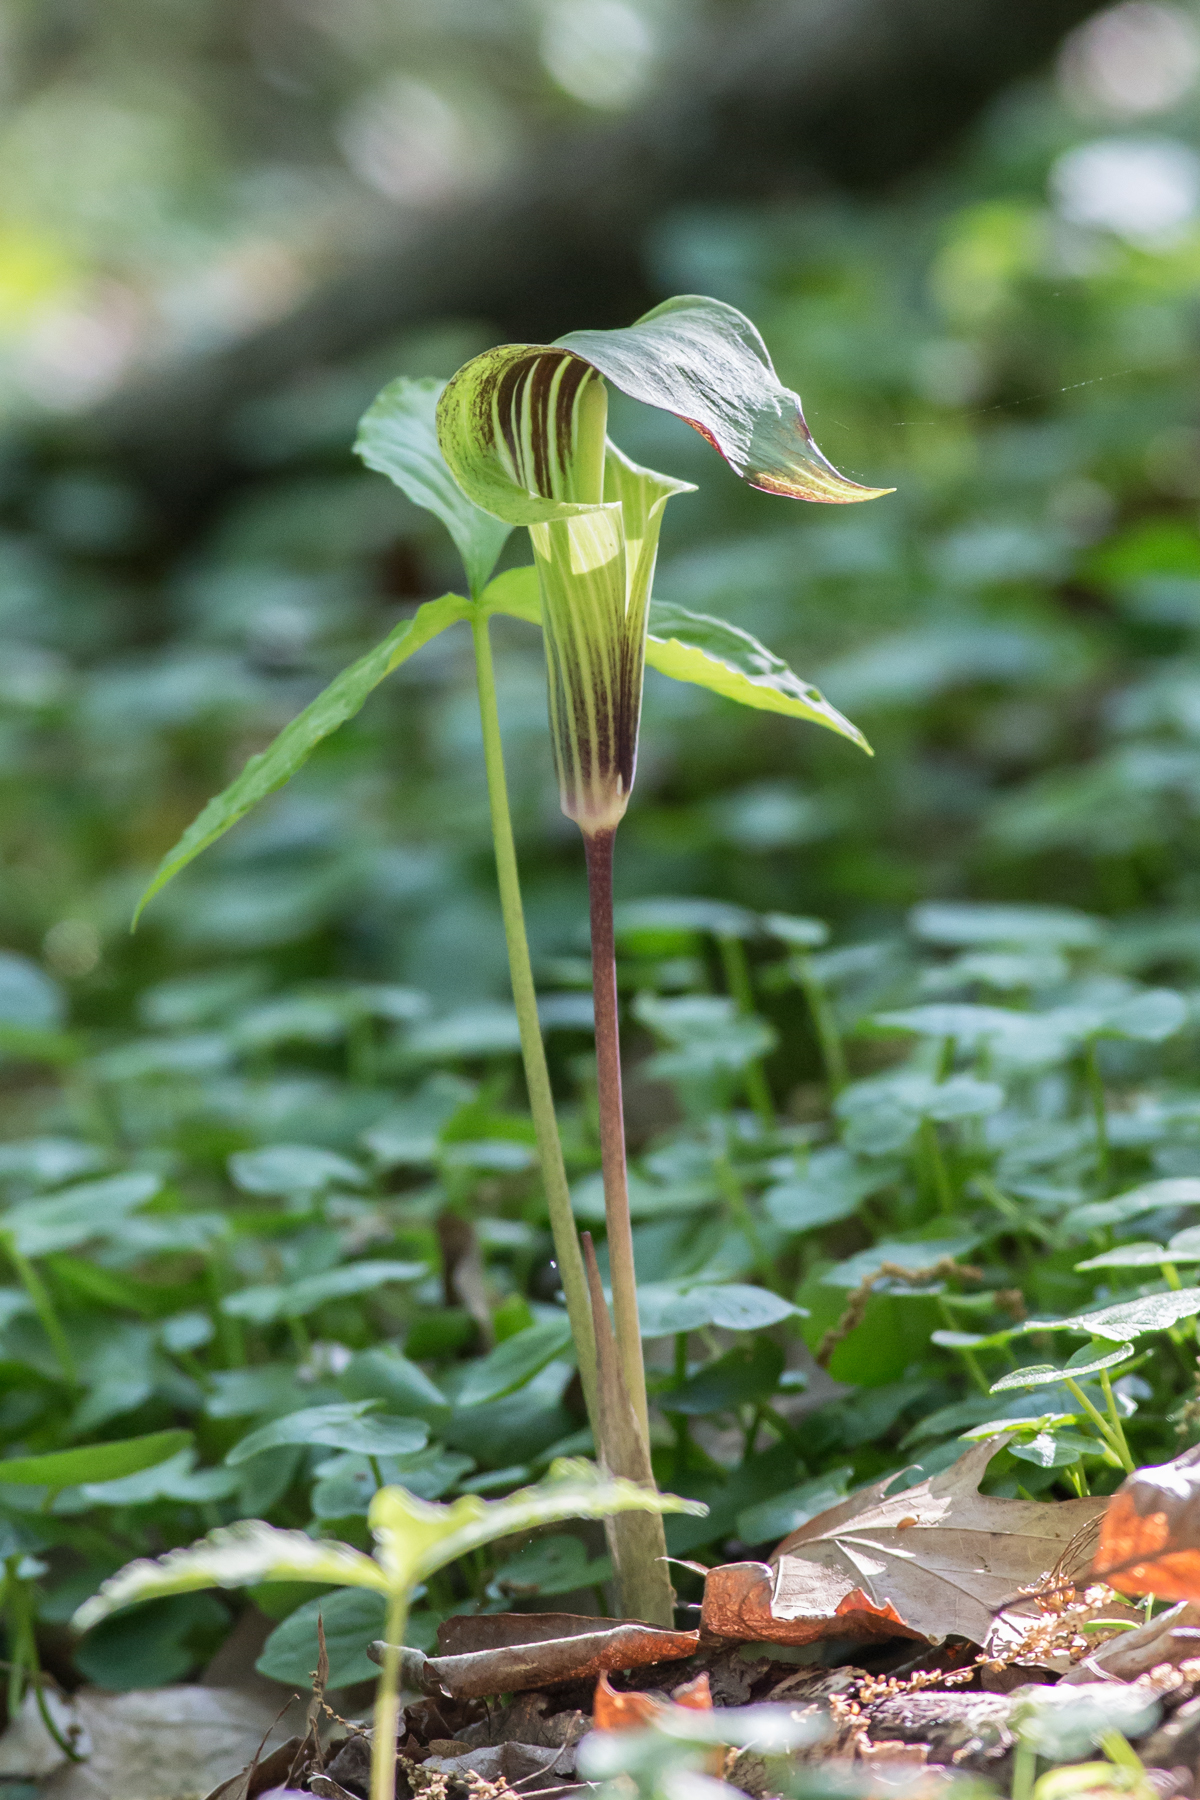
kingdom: Plantae
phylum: Tracheophyta
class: Liliopsida
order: Alismatales
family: Araceae
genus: Arisaema
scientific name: Arisaema triphyllum
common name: Jack-in-the-pulpit
